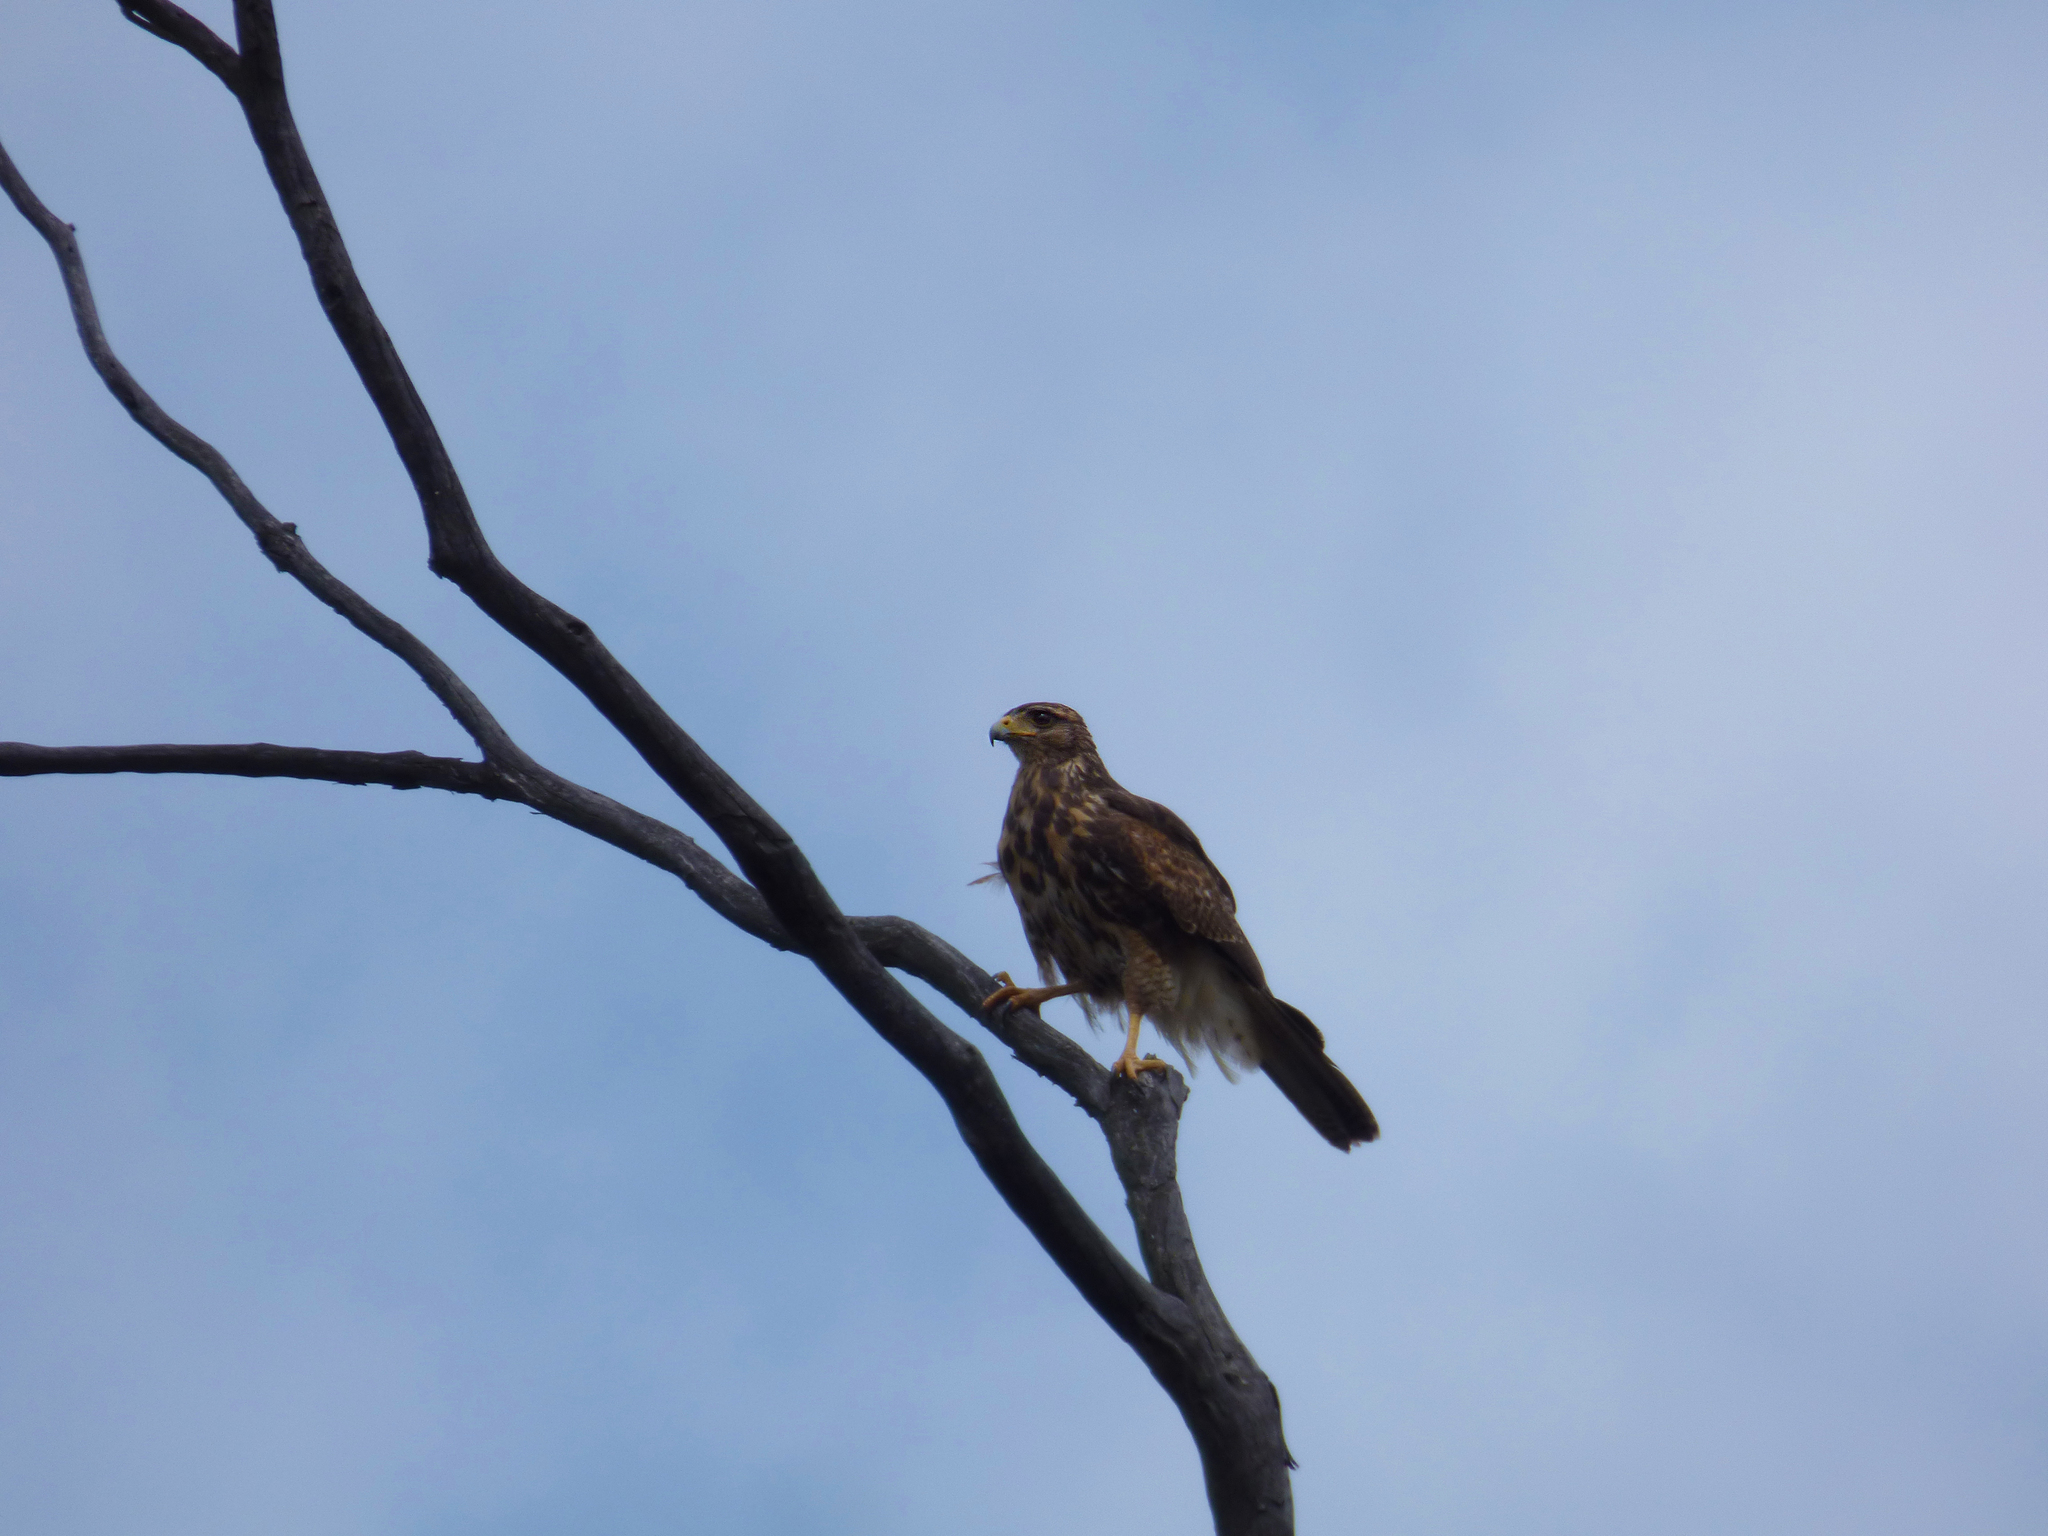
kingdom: Animalia
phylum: Chordata
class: Aves
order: Accipitriformes
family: Accipitridae
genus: Parabuteo
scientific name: Parabuteo unicinctus
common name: Harris's hawk
